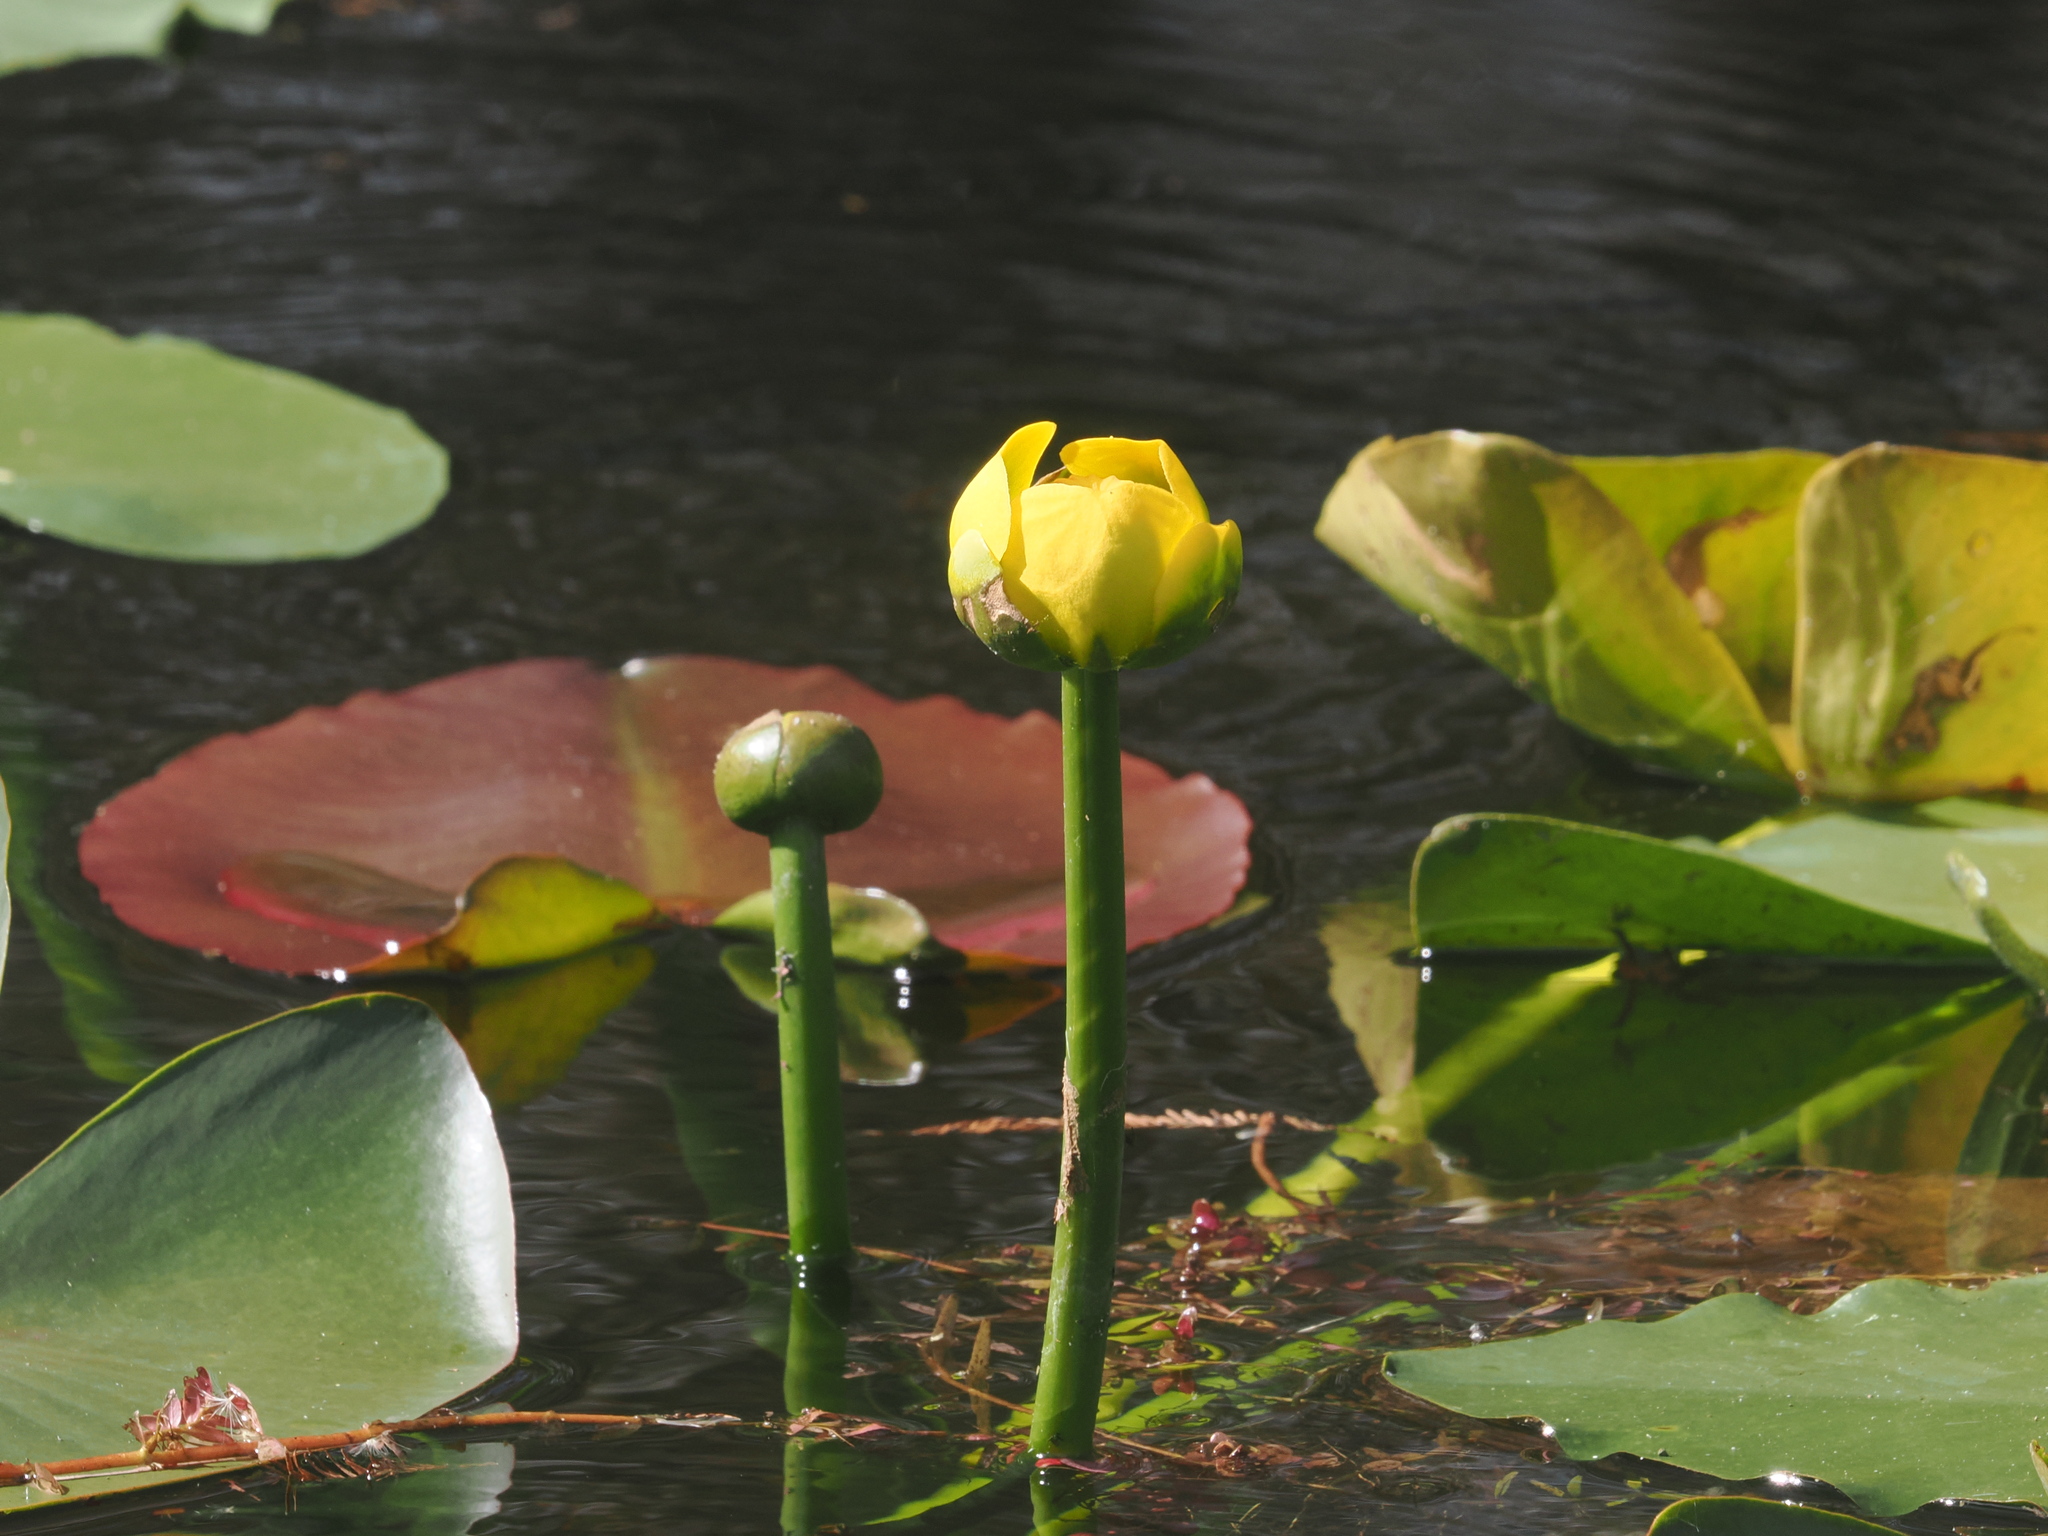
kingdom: Plantae
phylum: Tracheophyta
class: Magnoliopsida
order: Nymphaeales
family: Nymphaeaceae
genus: Nuphar
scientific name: Nuphar advena
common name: Spatter-dock
